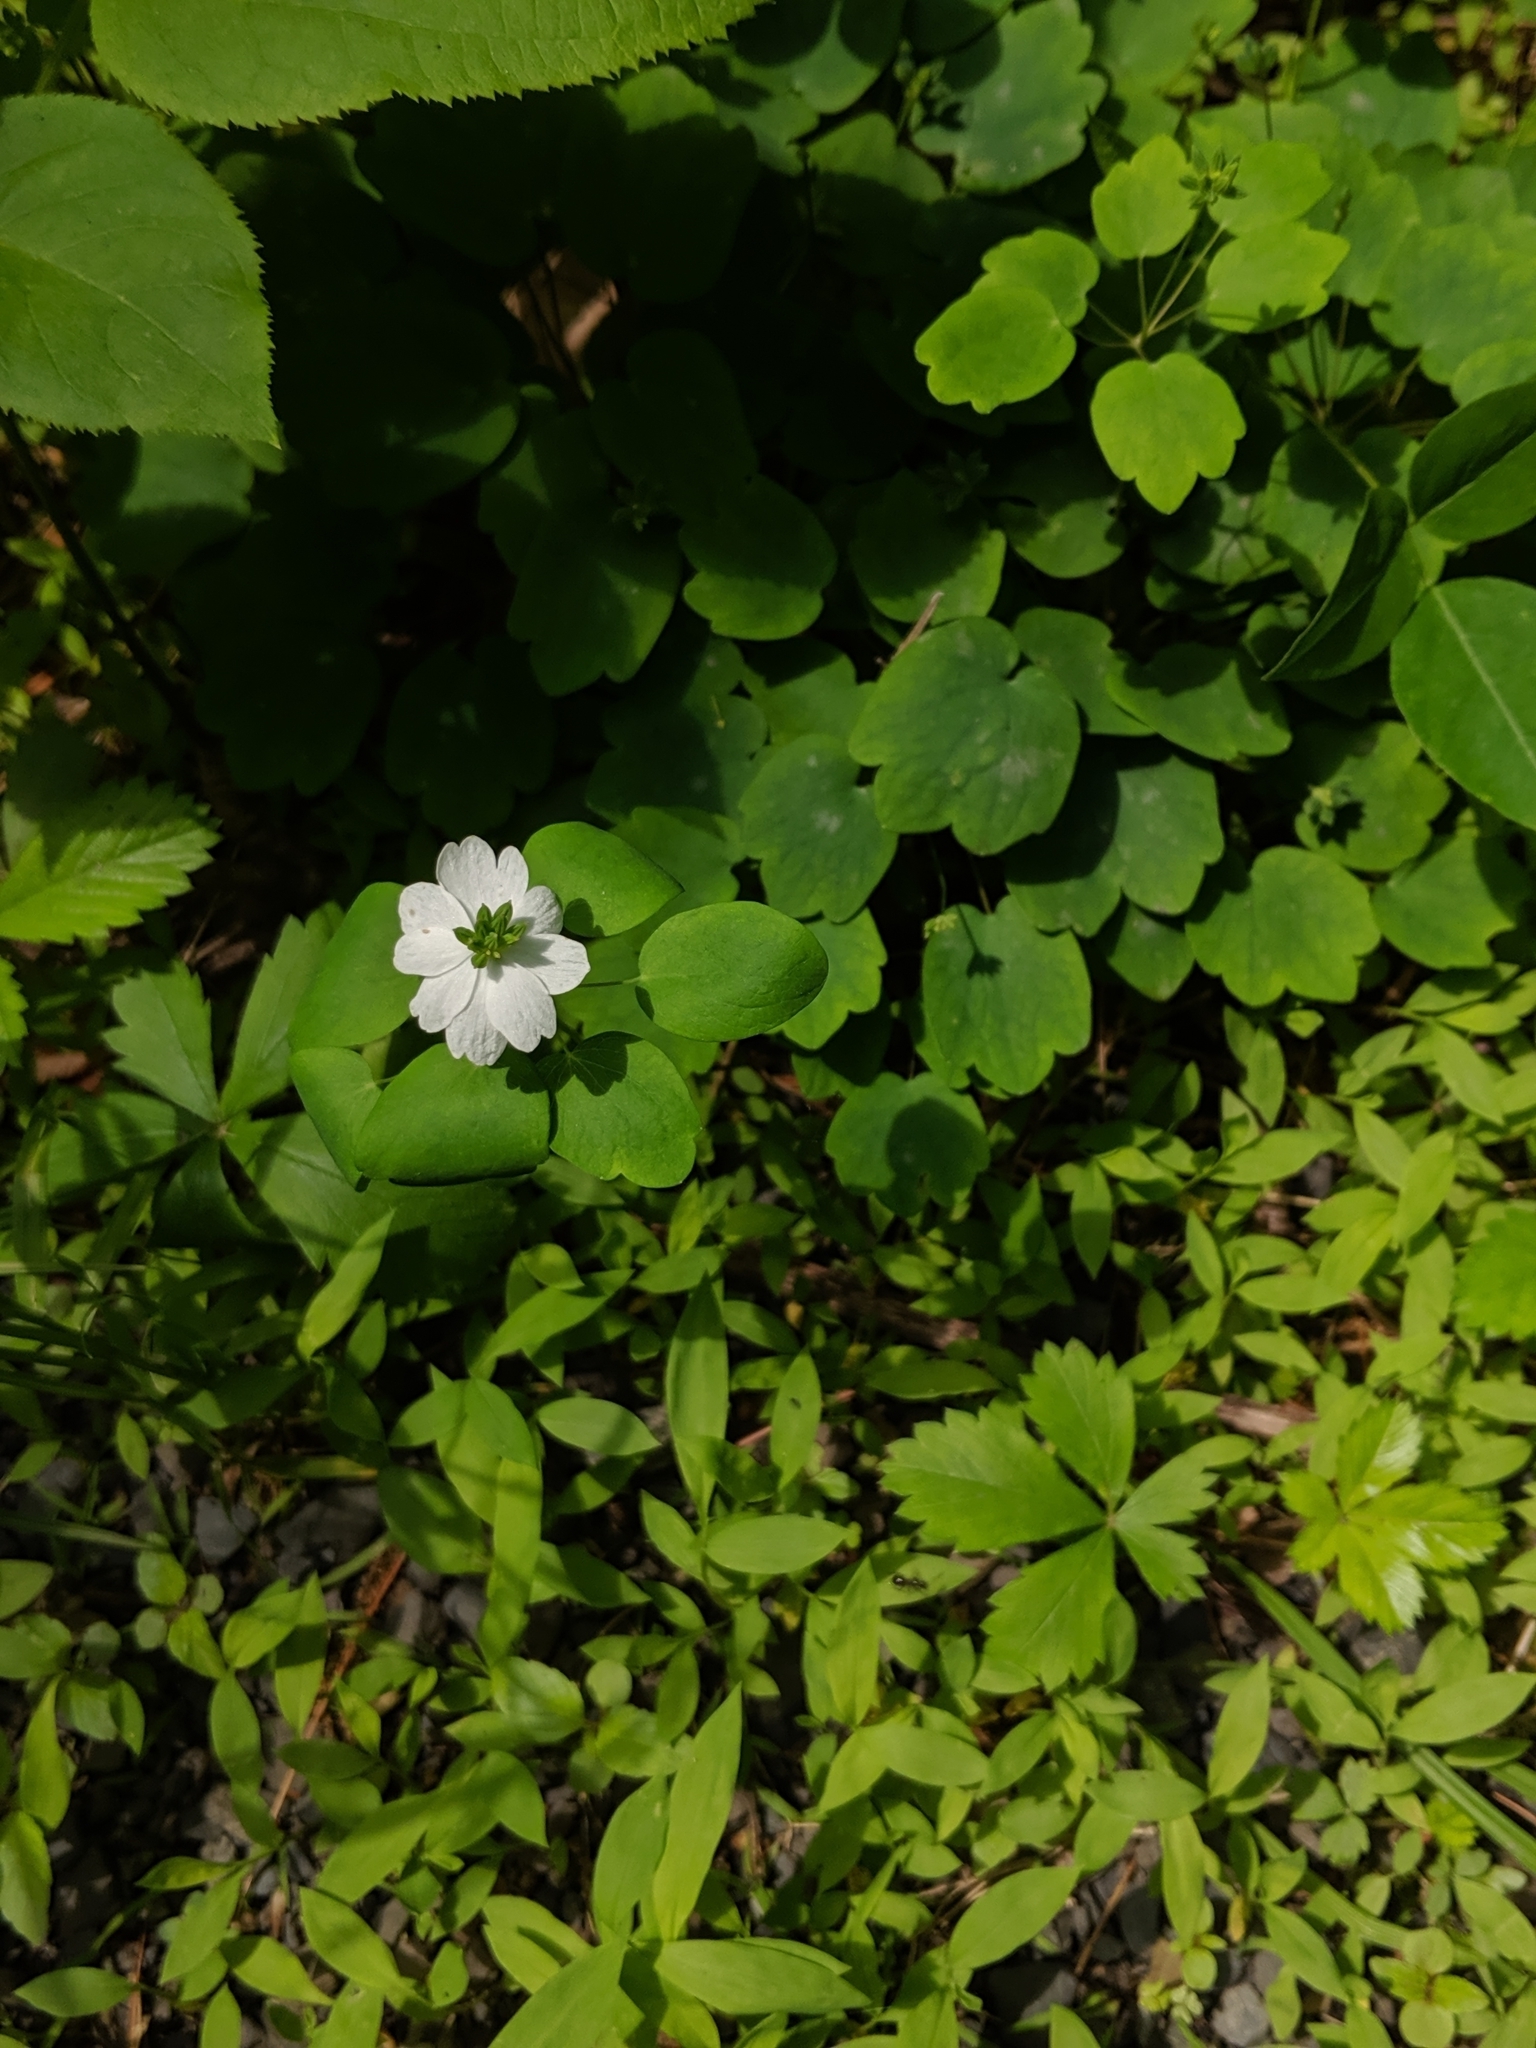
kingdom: Plantae
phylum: Tracheophyta
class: Magnoliopsida
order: Ranunculales
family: Ranunculaceae
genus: Thalictrum
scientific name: Thalictrum thalictroides
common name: Rue-anemone
